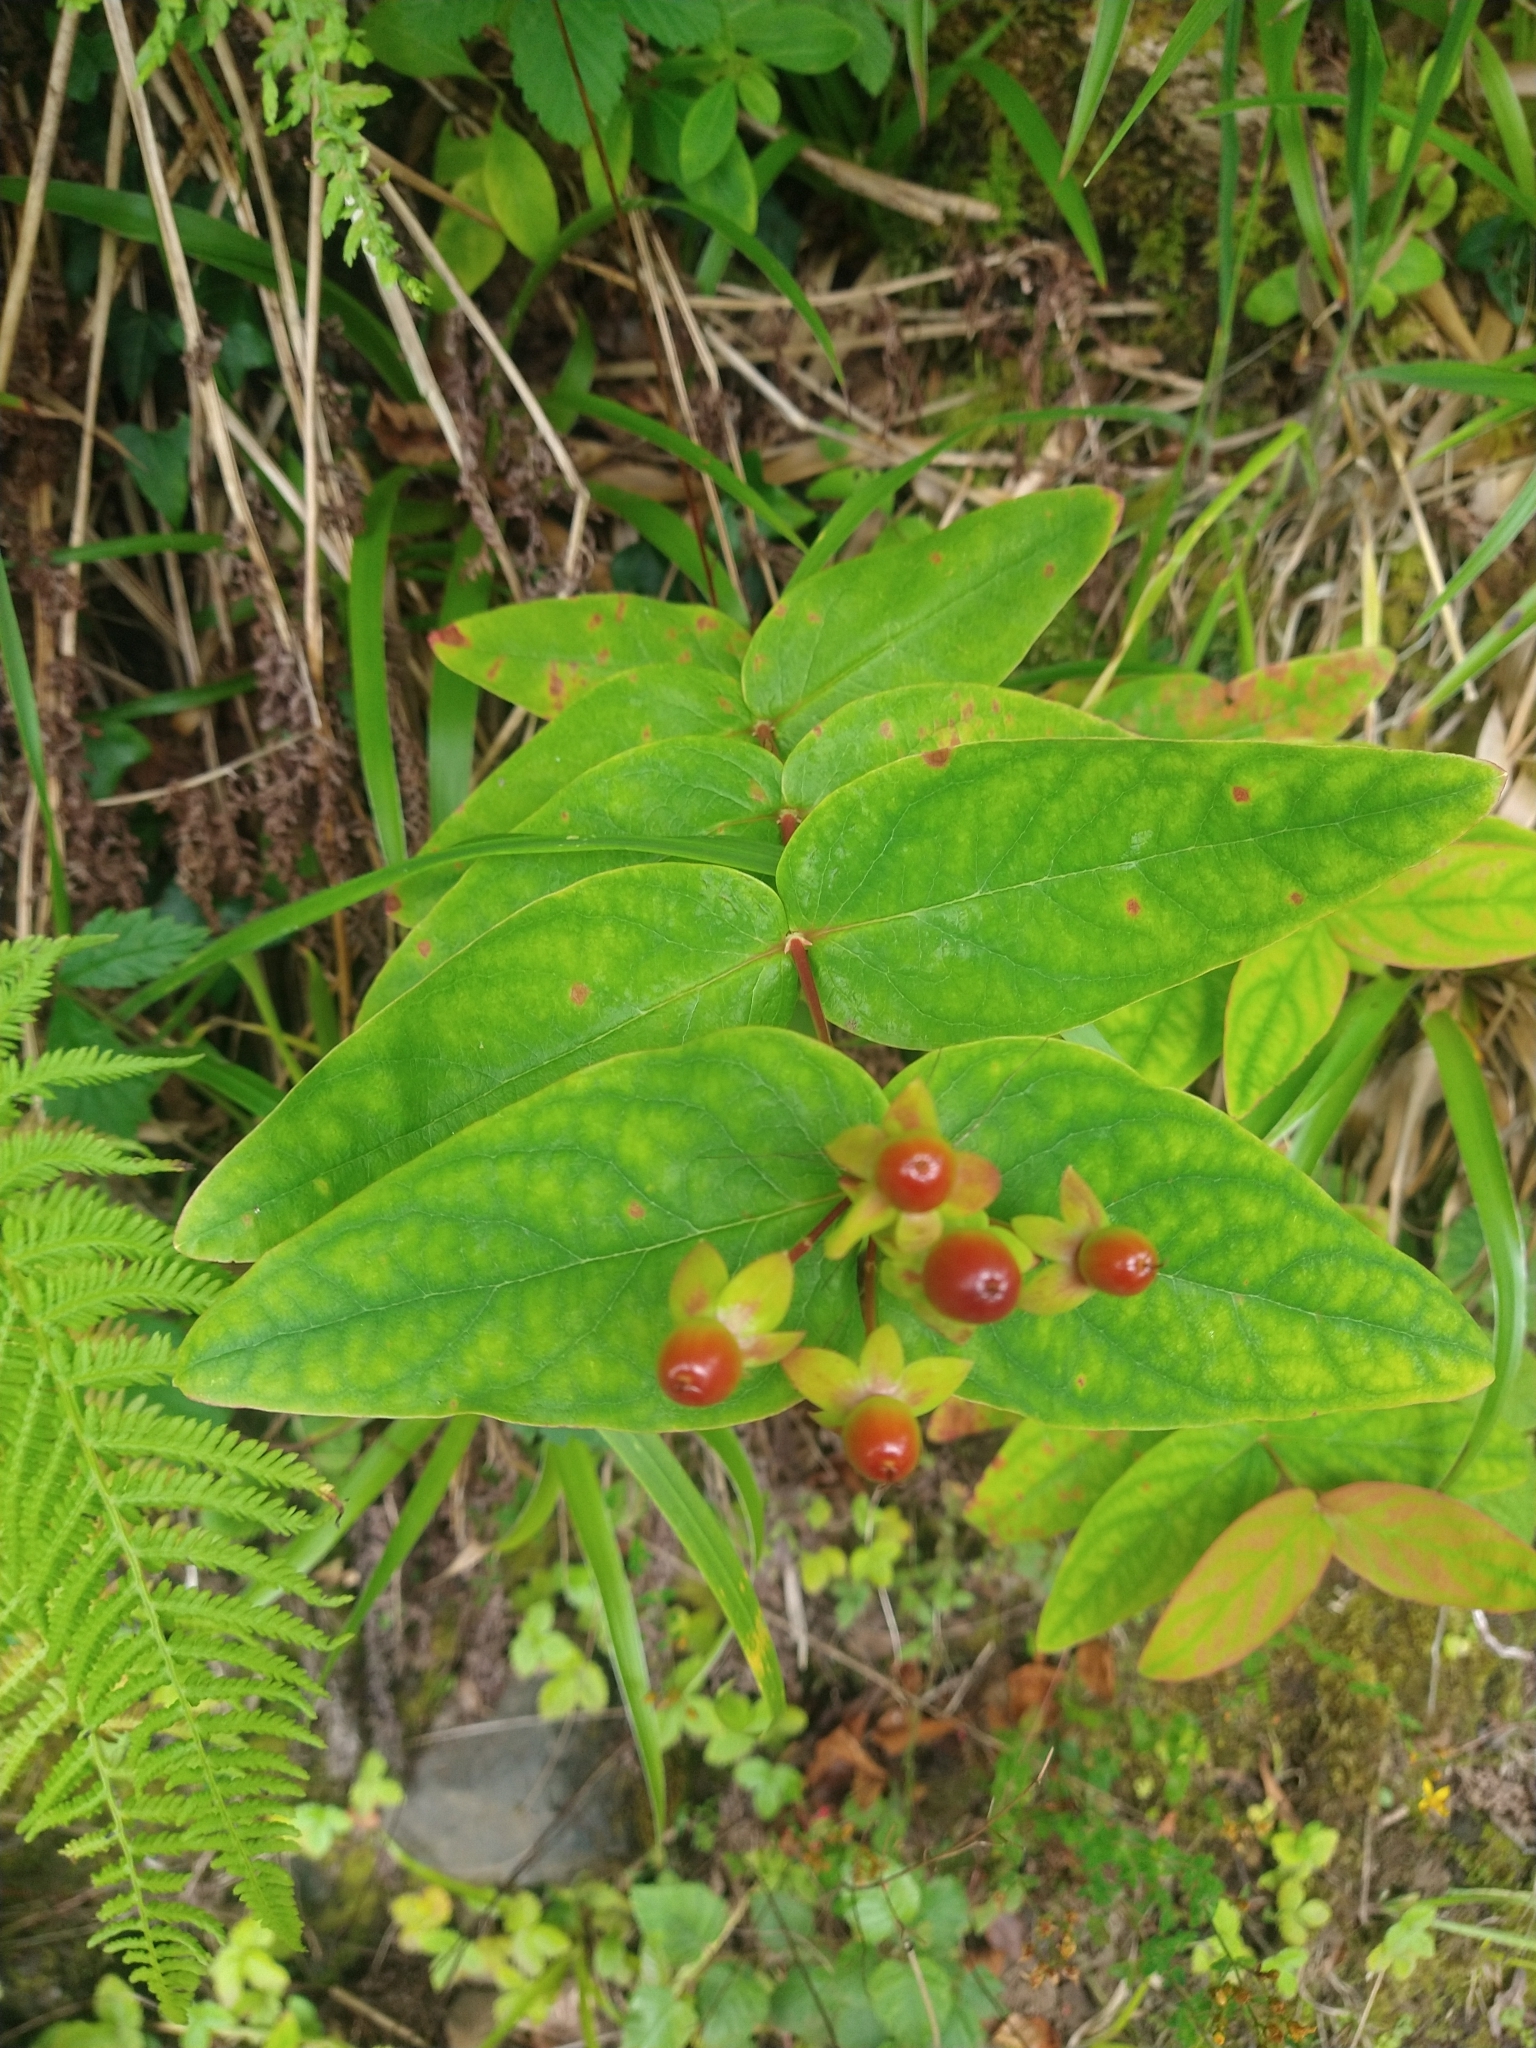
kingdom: Plantae
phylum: Tracheophyta
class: Magnoliopsida
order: Malpighiales
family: Hypericaceae
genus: Hypericum
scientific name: Hypericum androsaemum
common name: Sweet-amber
